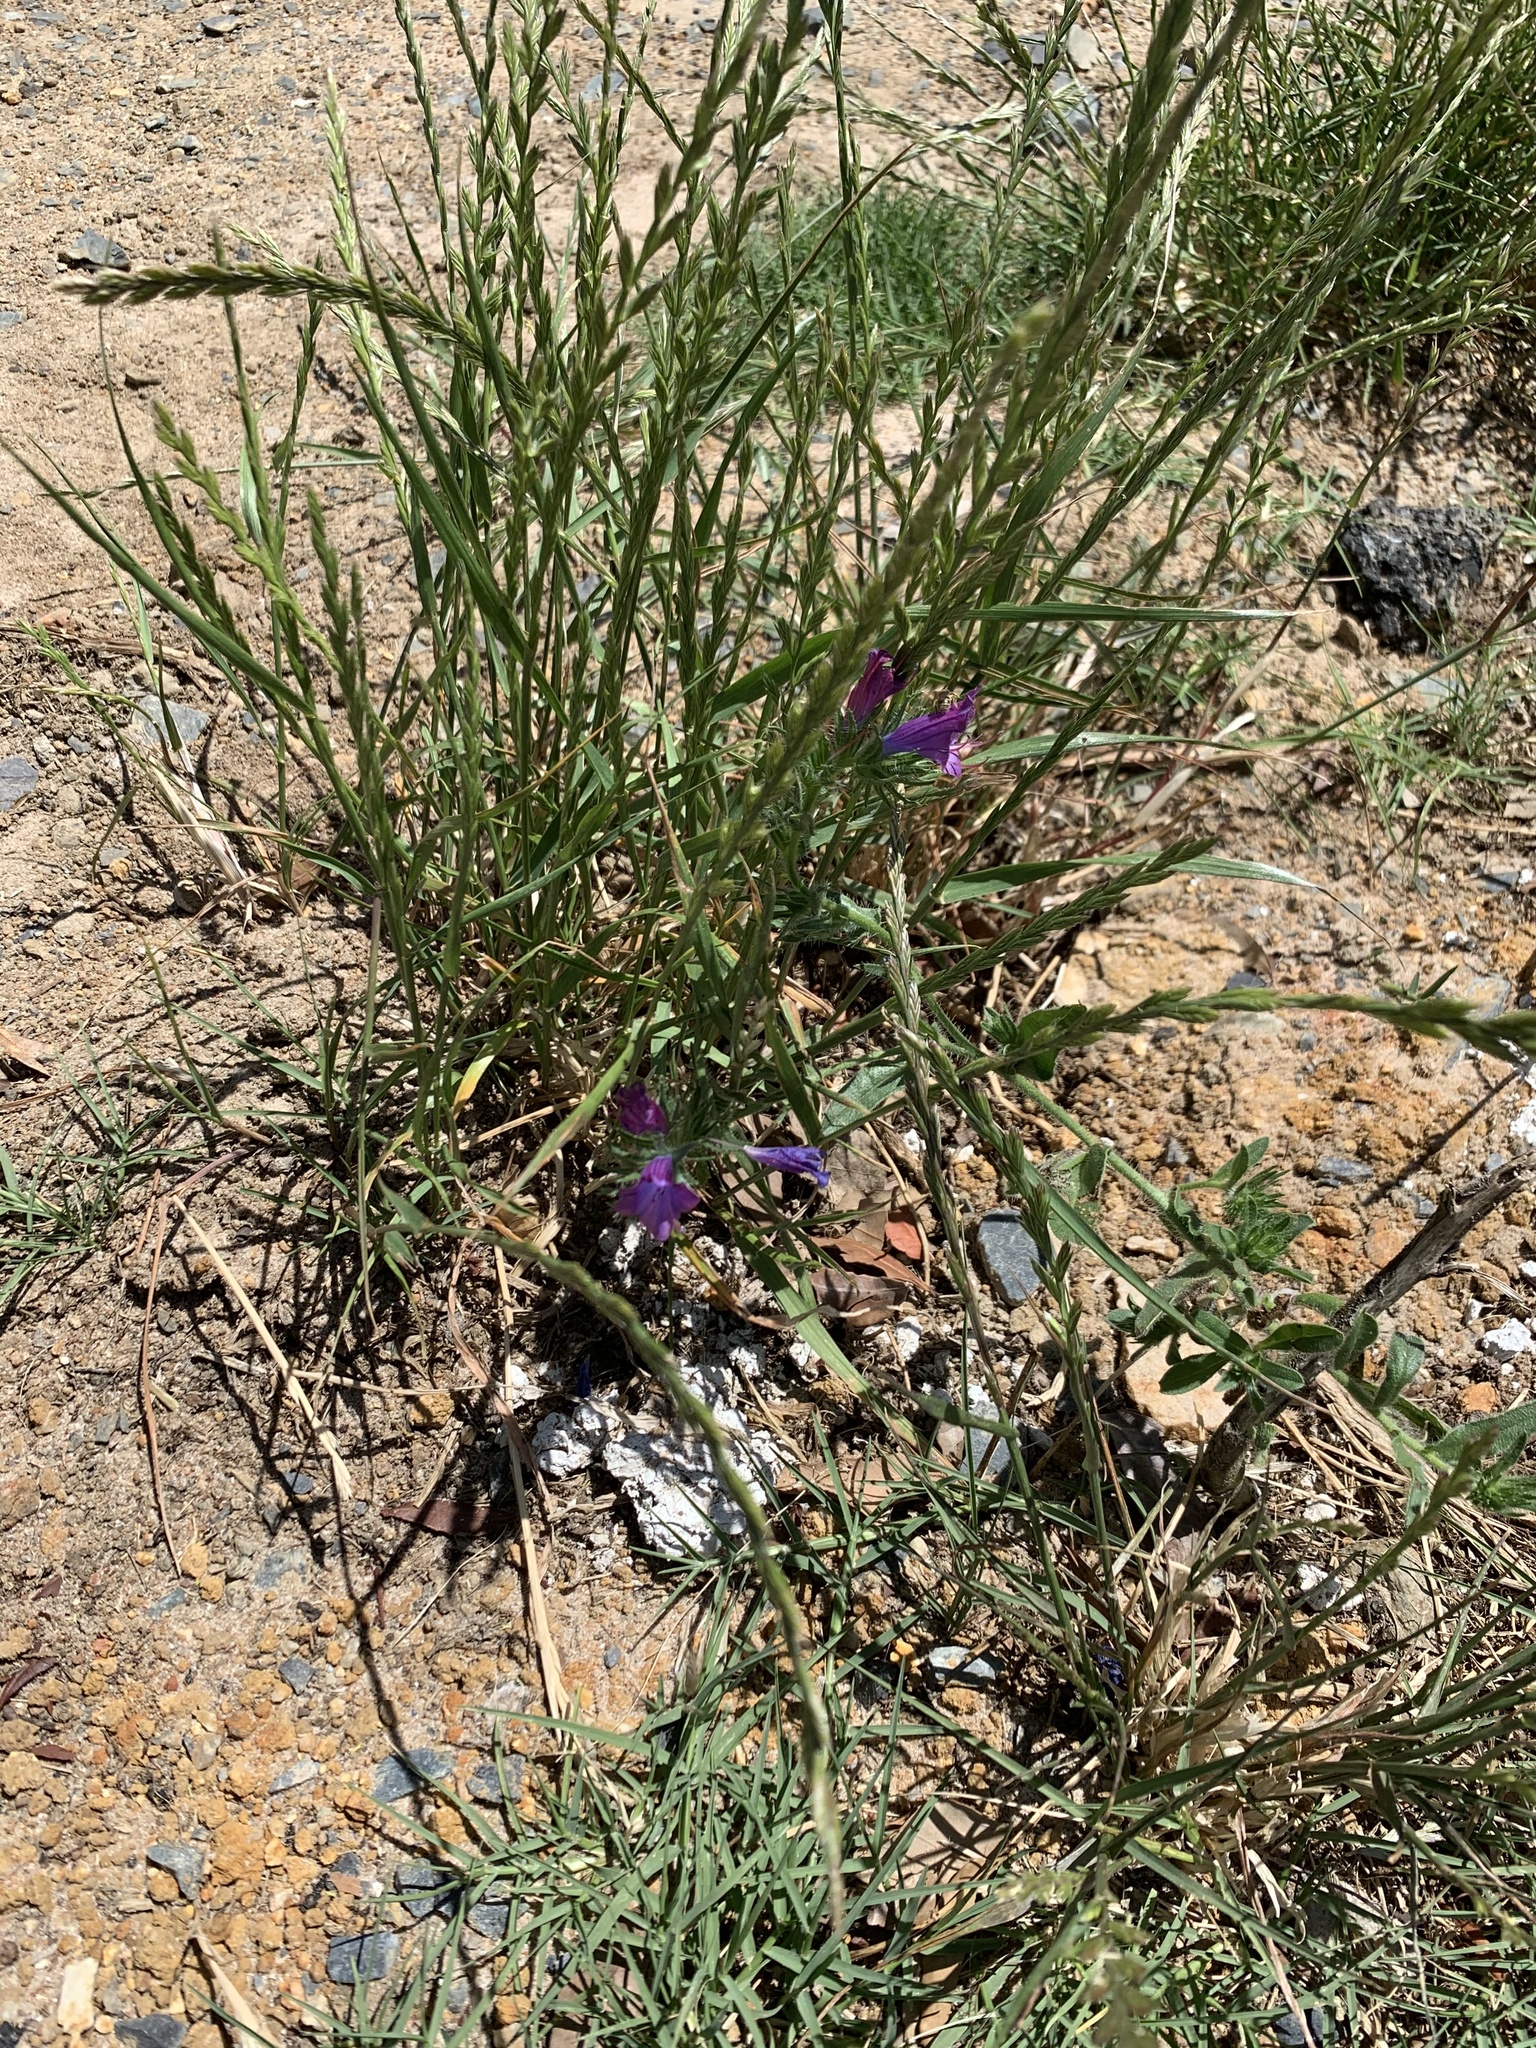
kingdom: Plantae
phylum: Tracheophyta
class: Magnoliopsida
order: Boraginales
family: Boraginaceae
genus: Echium
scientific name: Echium plantagineum
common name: Purple viper's-bugloss
